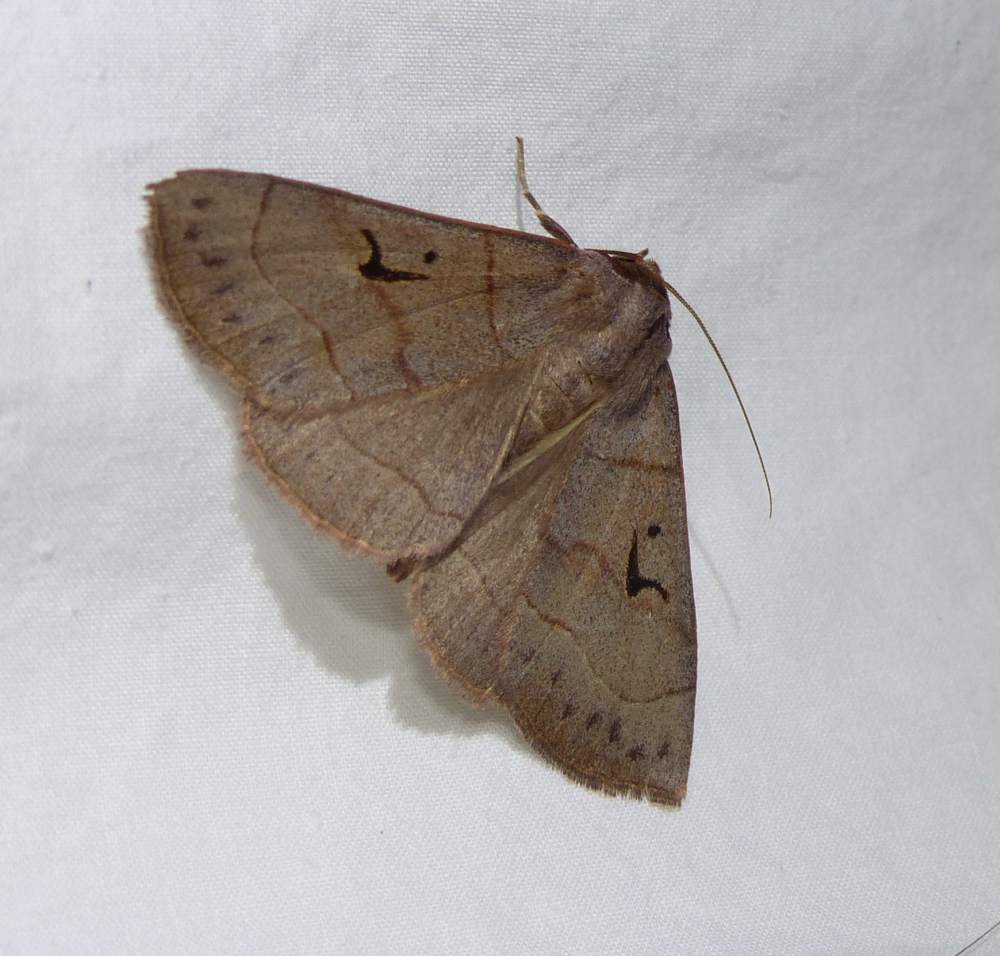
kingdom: Animalia
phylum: Arthropoda
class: Insecta
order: Lepidoptera
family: Erebidae
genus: Panopoda
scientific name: Panopoda carneicosta
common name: Brown panopoda moth
